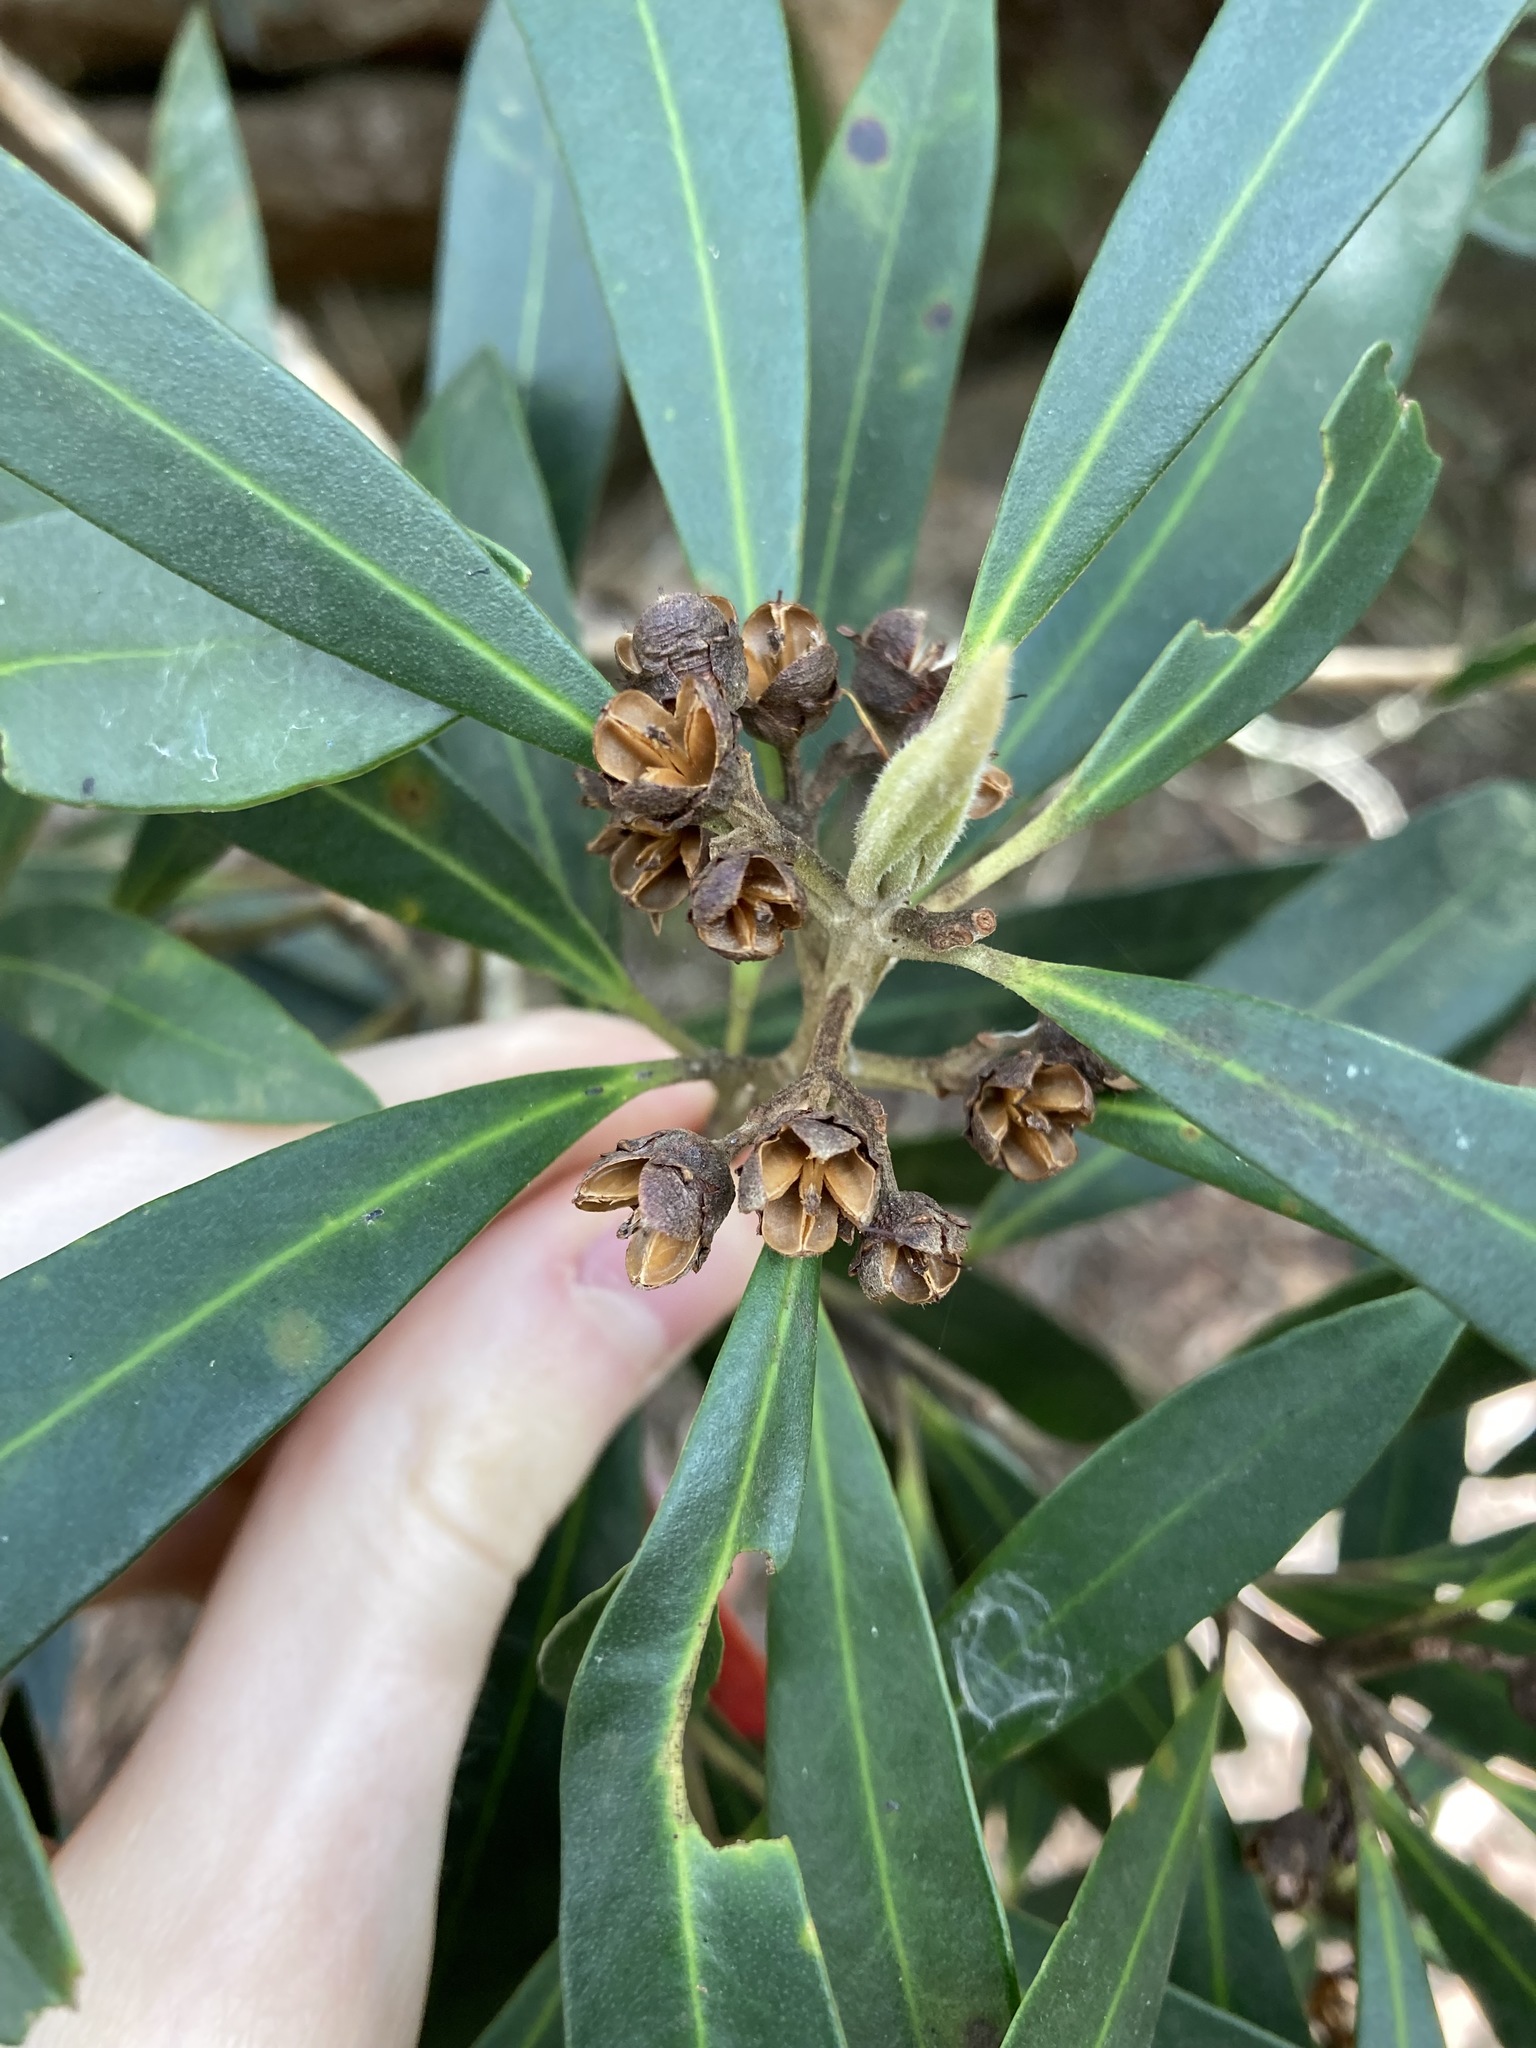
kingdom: Plantae
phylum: Tracheophyta
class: Magnoliopsida
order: Myrtales
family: Myrtaceae
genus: Tristaniopsis
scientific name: Tristaniopsis laurina
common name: Water-gum
